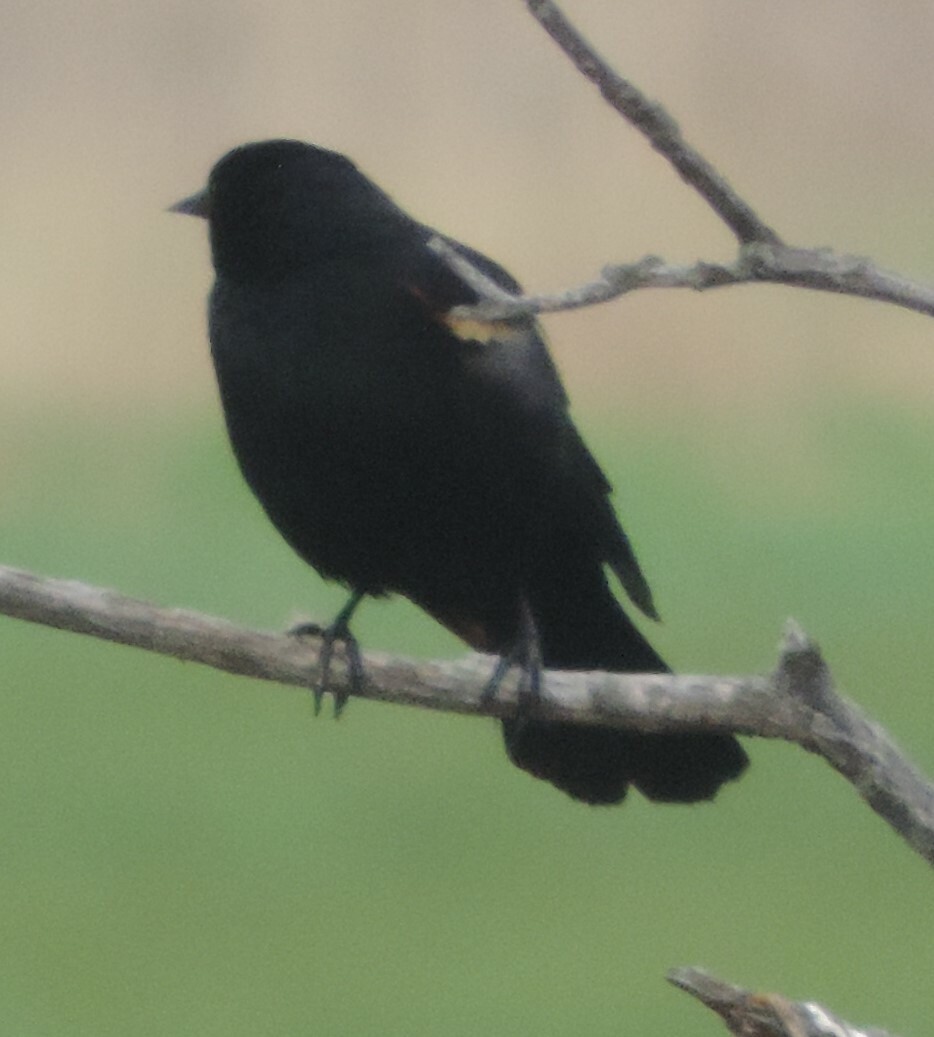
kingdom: Animalia
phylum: Chordata
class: Aves
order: Passeriformes
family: Icteridae
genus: Agelaius
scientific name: Agelaius phoeniceus
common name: Red-winged blackbird
